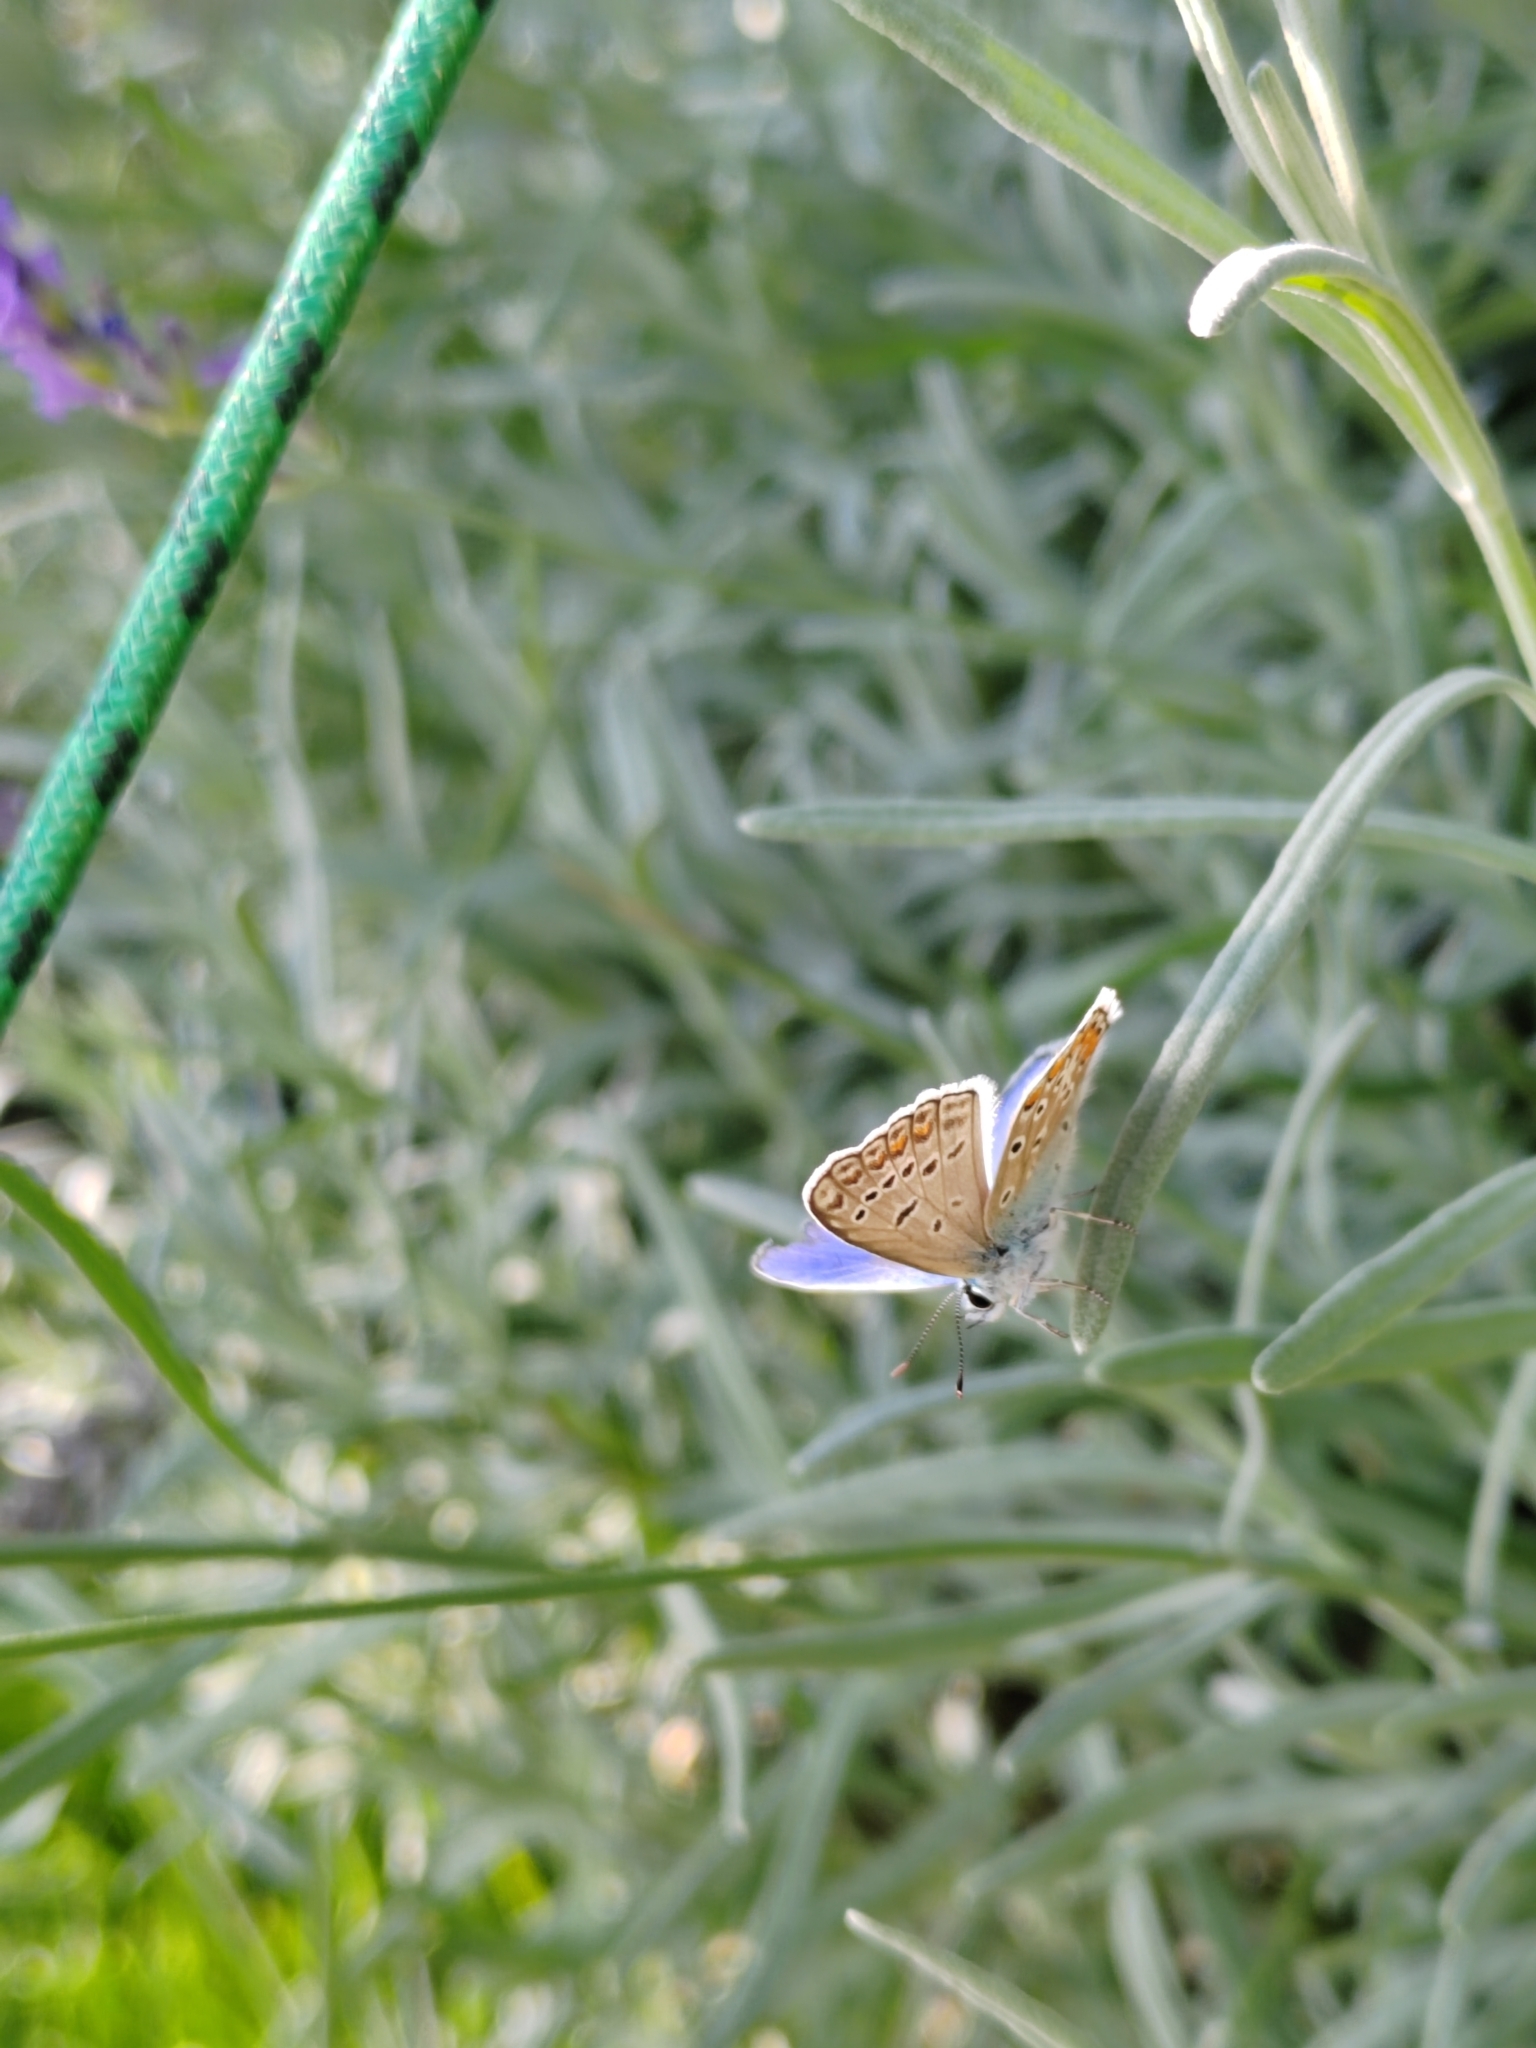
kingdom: Animalia
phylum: Arthropoda
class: Insecta
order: Lepidoptera
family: Lycaenidae
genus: Polyommatus
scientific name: Polyommatus icarus
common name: Common blue
